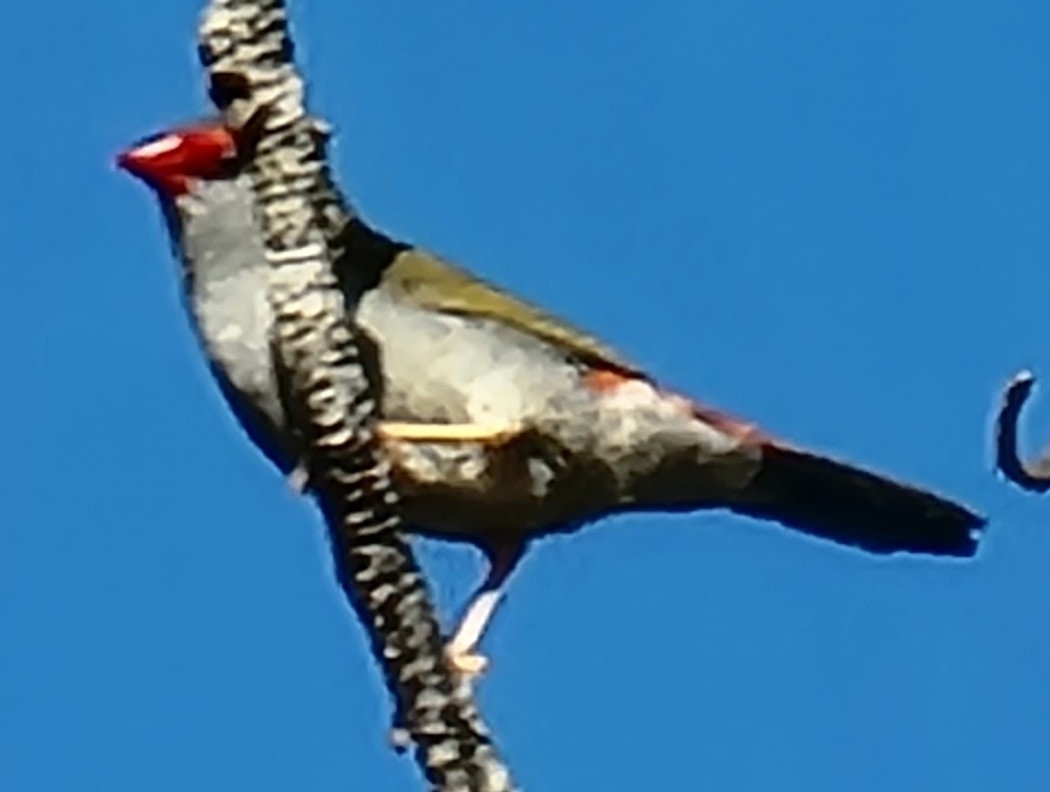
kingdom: Animalia
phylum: Chordata
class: Aves
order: Passeriformes
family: Estrildidae
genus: Neochmia
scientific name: Neochmia temporalis
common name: Red-browed finch
